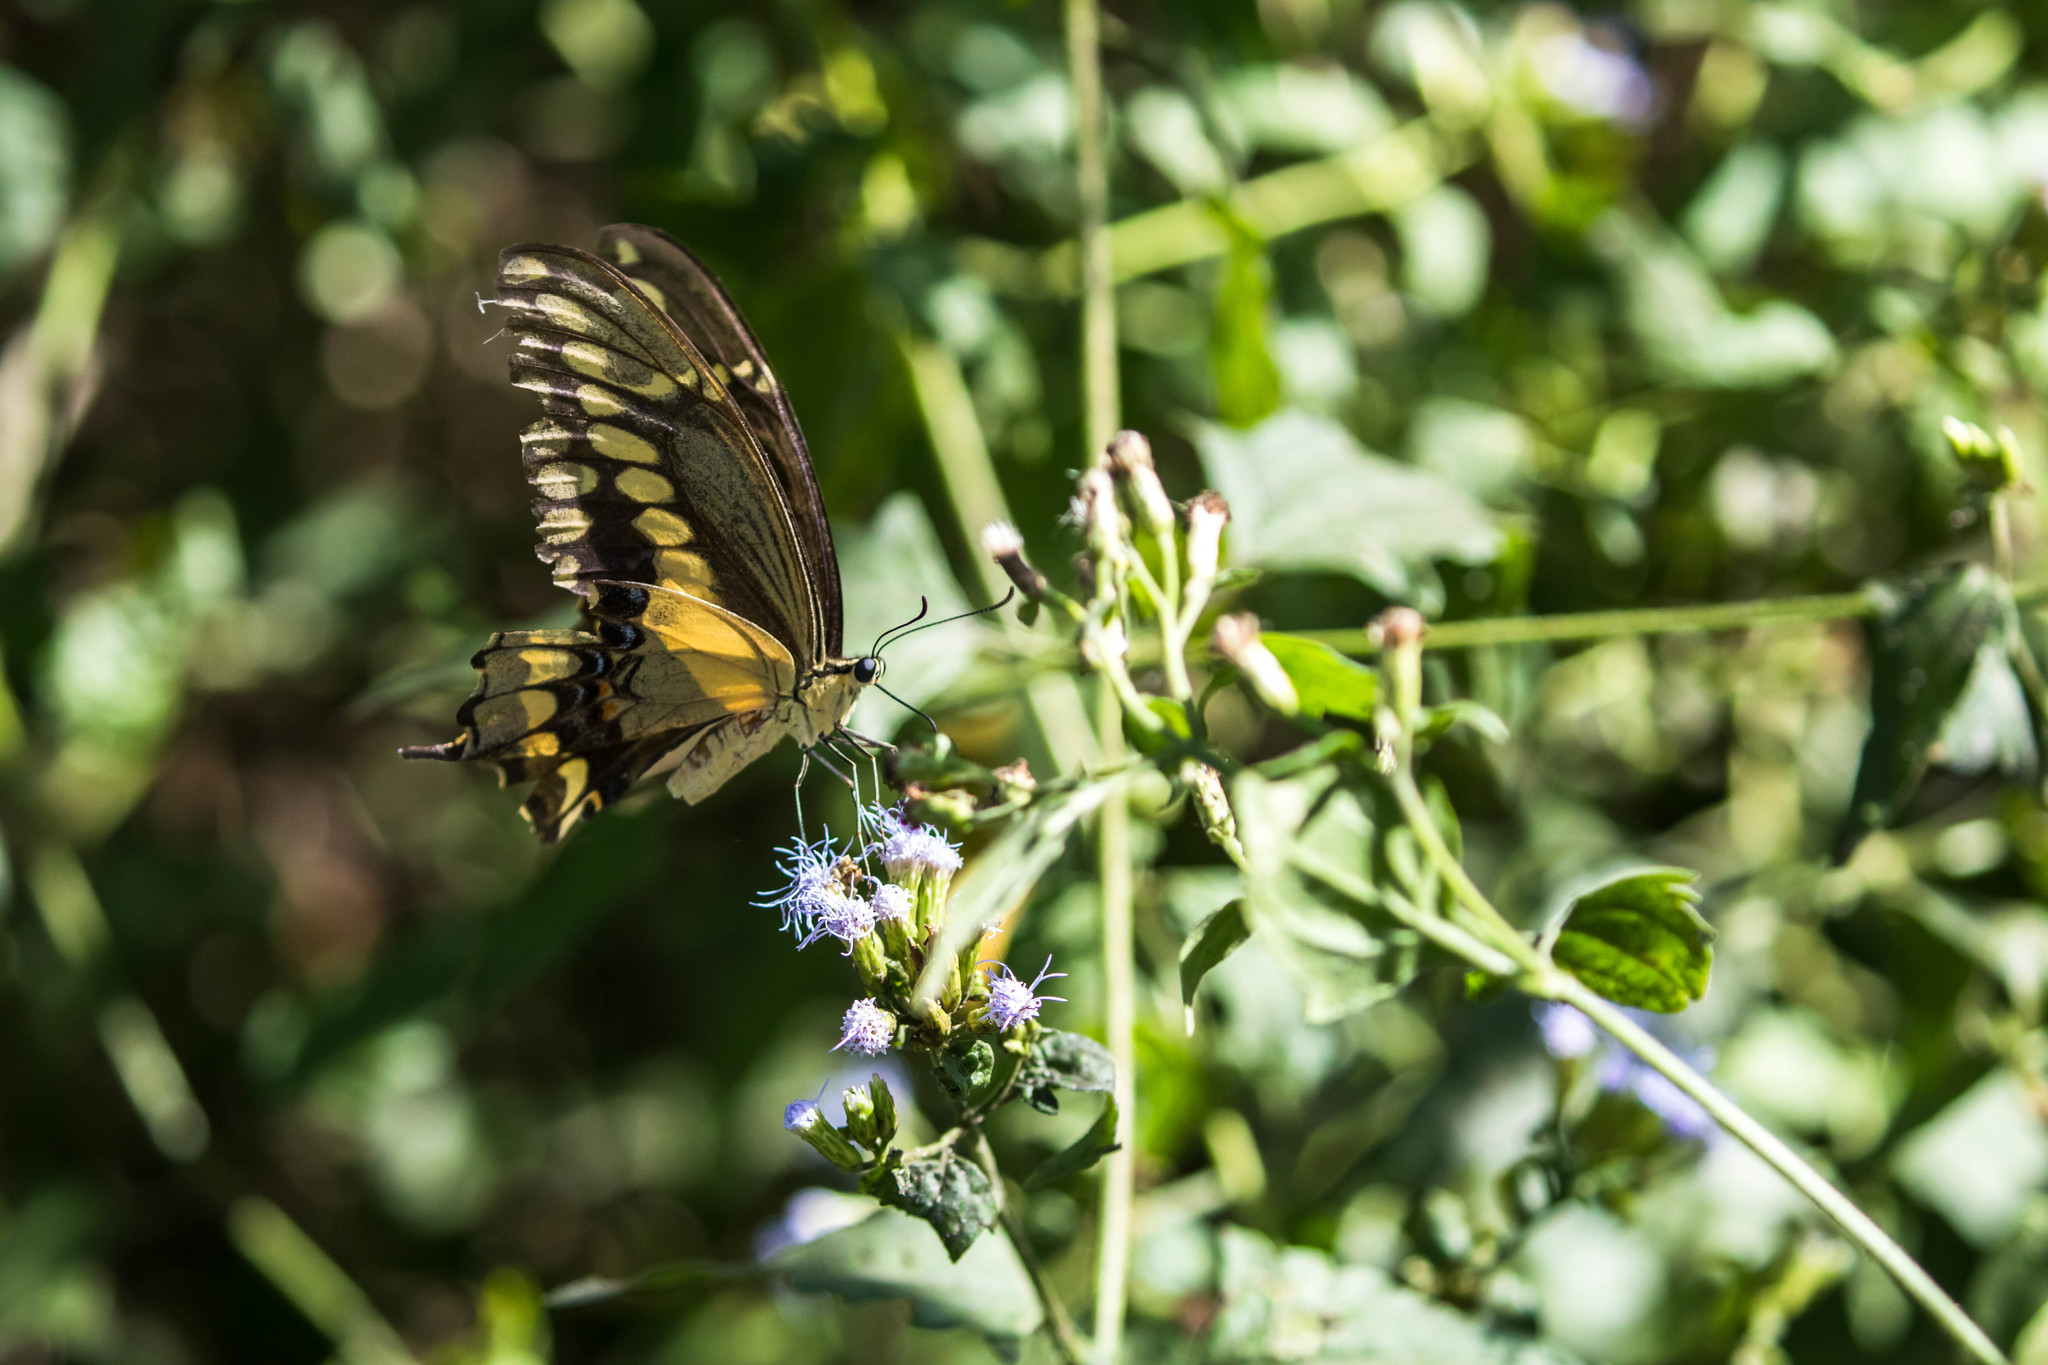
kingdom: Animalia
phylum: Arthropoda
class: Insecta
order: Lepidoptera
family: Papilionidae
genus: Papilio
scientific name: Papilio rumiko
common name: Western giant swallowtail
